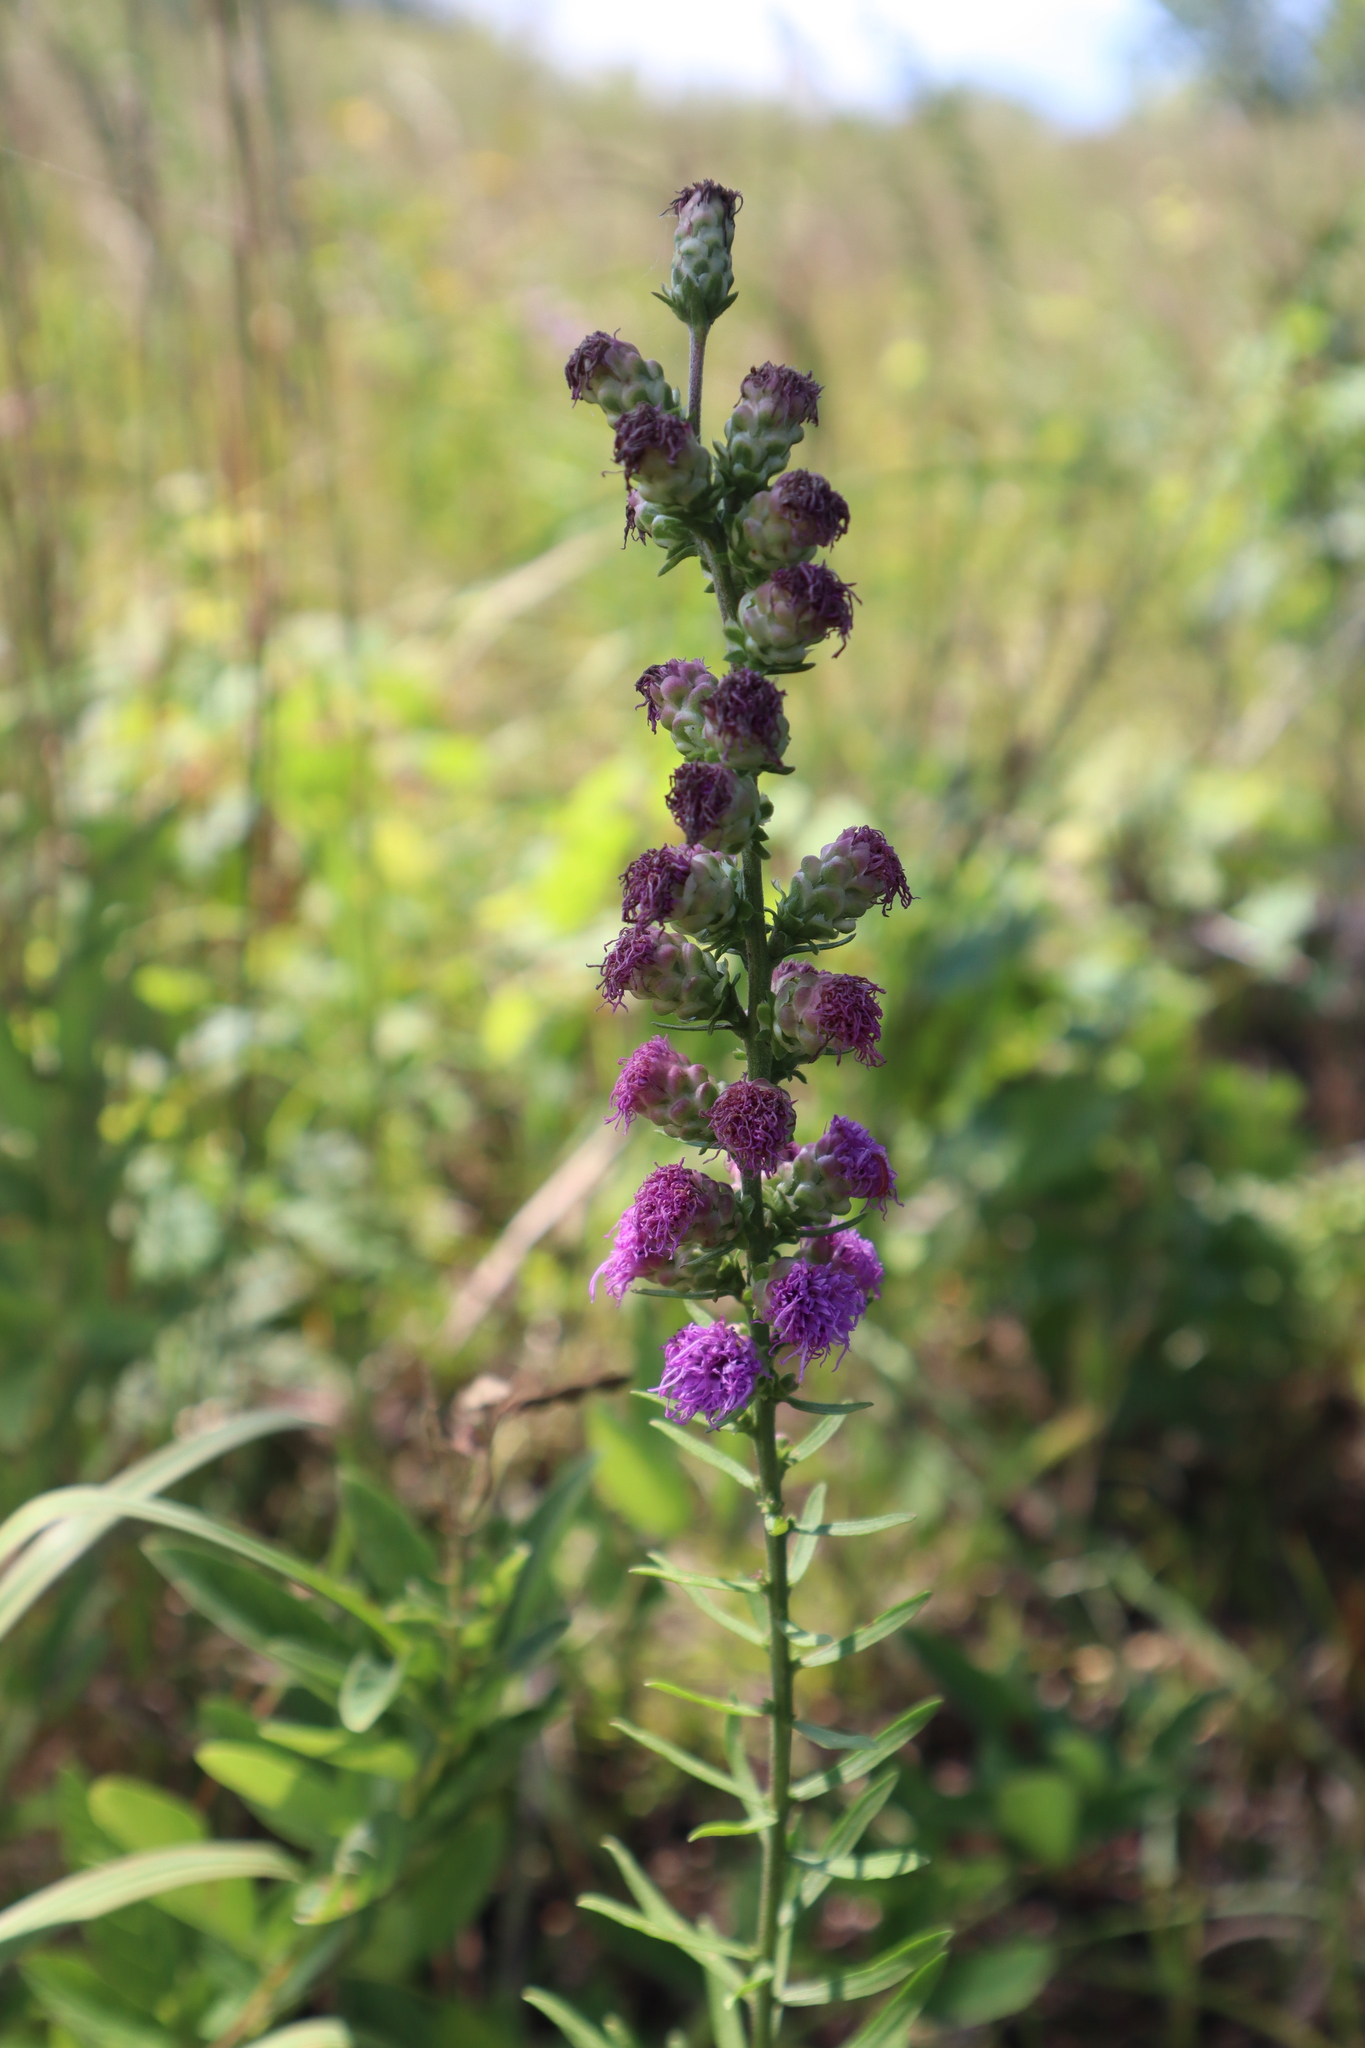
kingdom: Plantae
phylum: Tracheophyta
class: Magnoliopsida
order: Asterales
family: Asteraceae
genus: Liatris
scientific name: Liatris aspera
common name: Lacerate blazing-star
